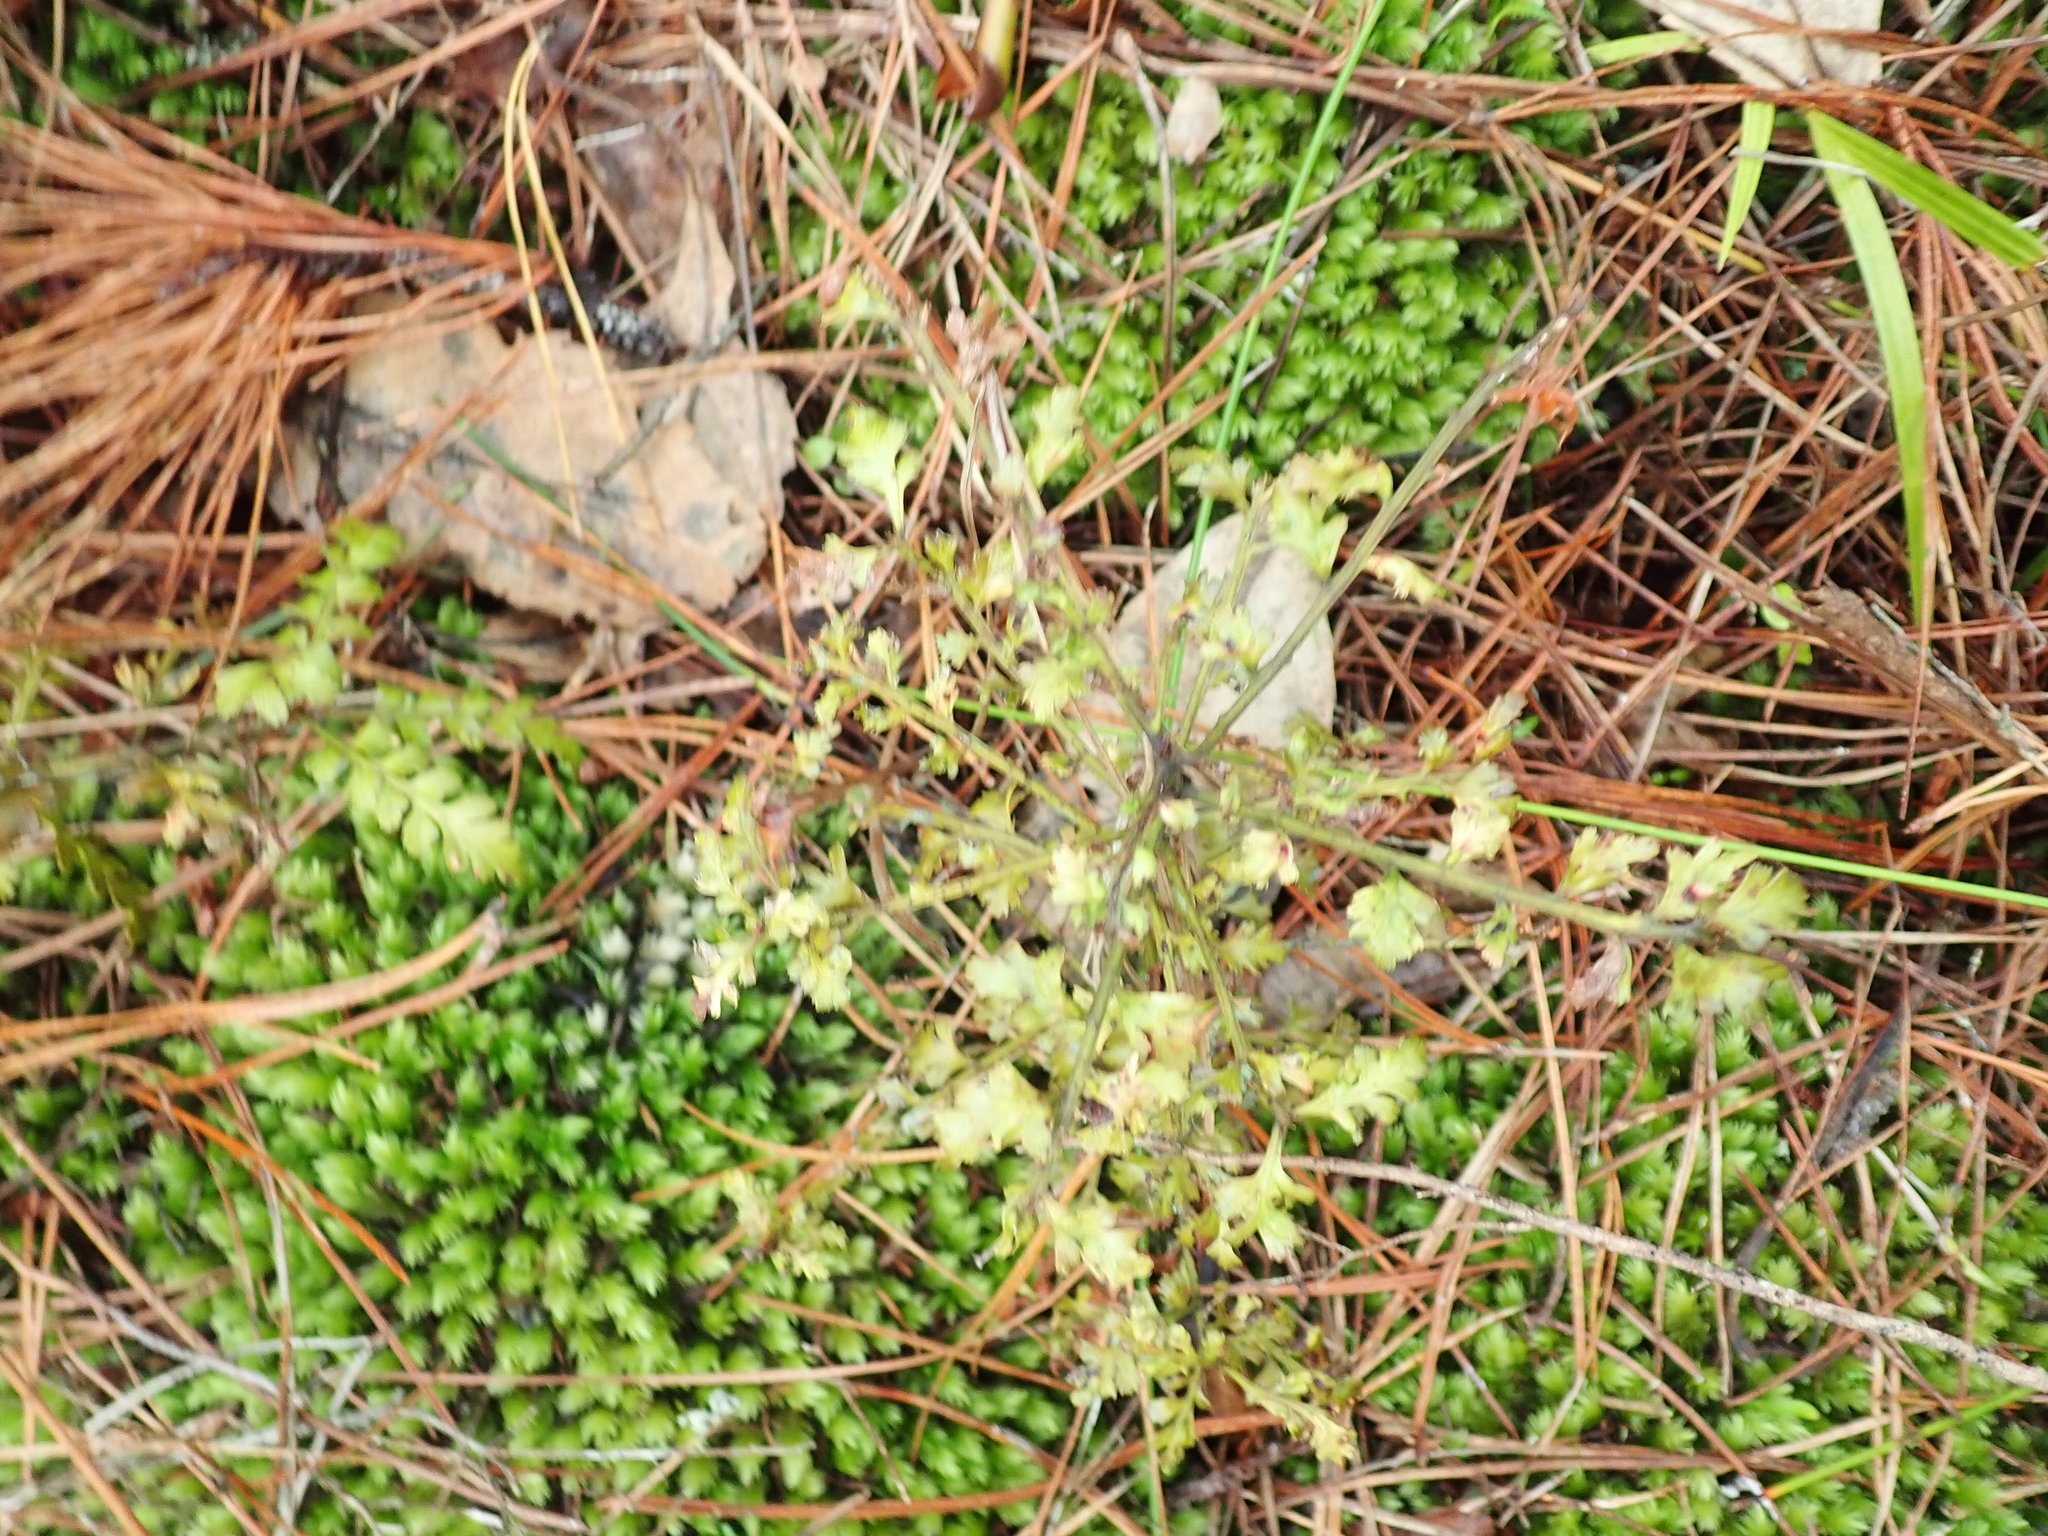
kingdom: Plantae
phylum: Tracheophyta
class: Pinopsida
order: Pinales
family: Phyllocladaceae
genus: Phyllocladus
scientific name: Phyllocladus trichomanoides
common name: Celery pine
